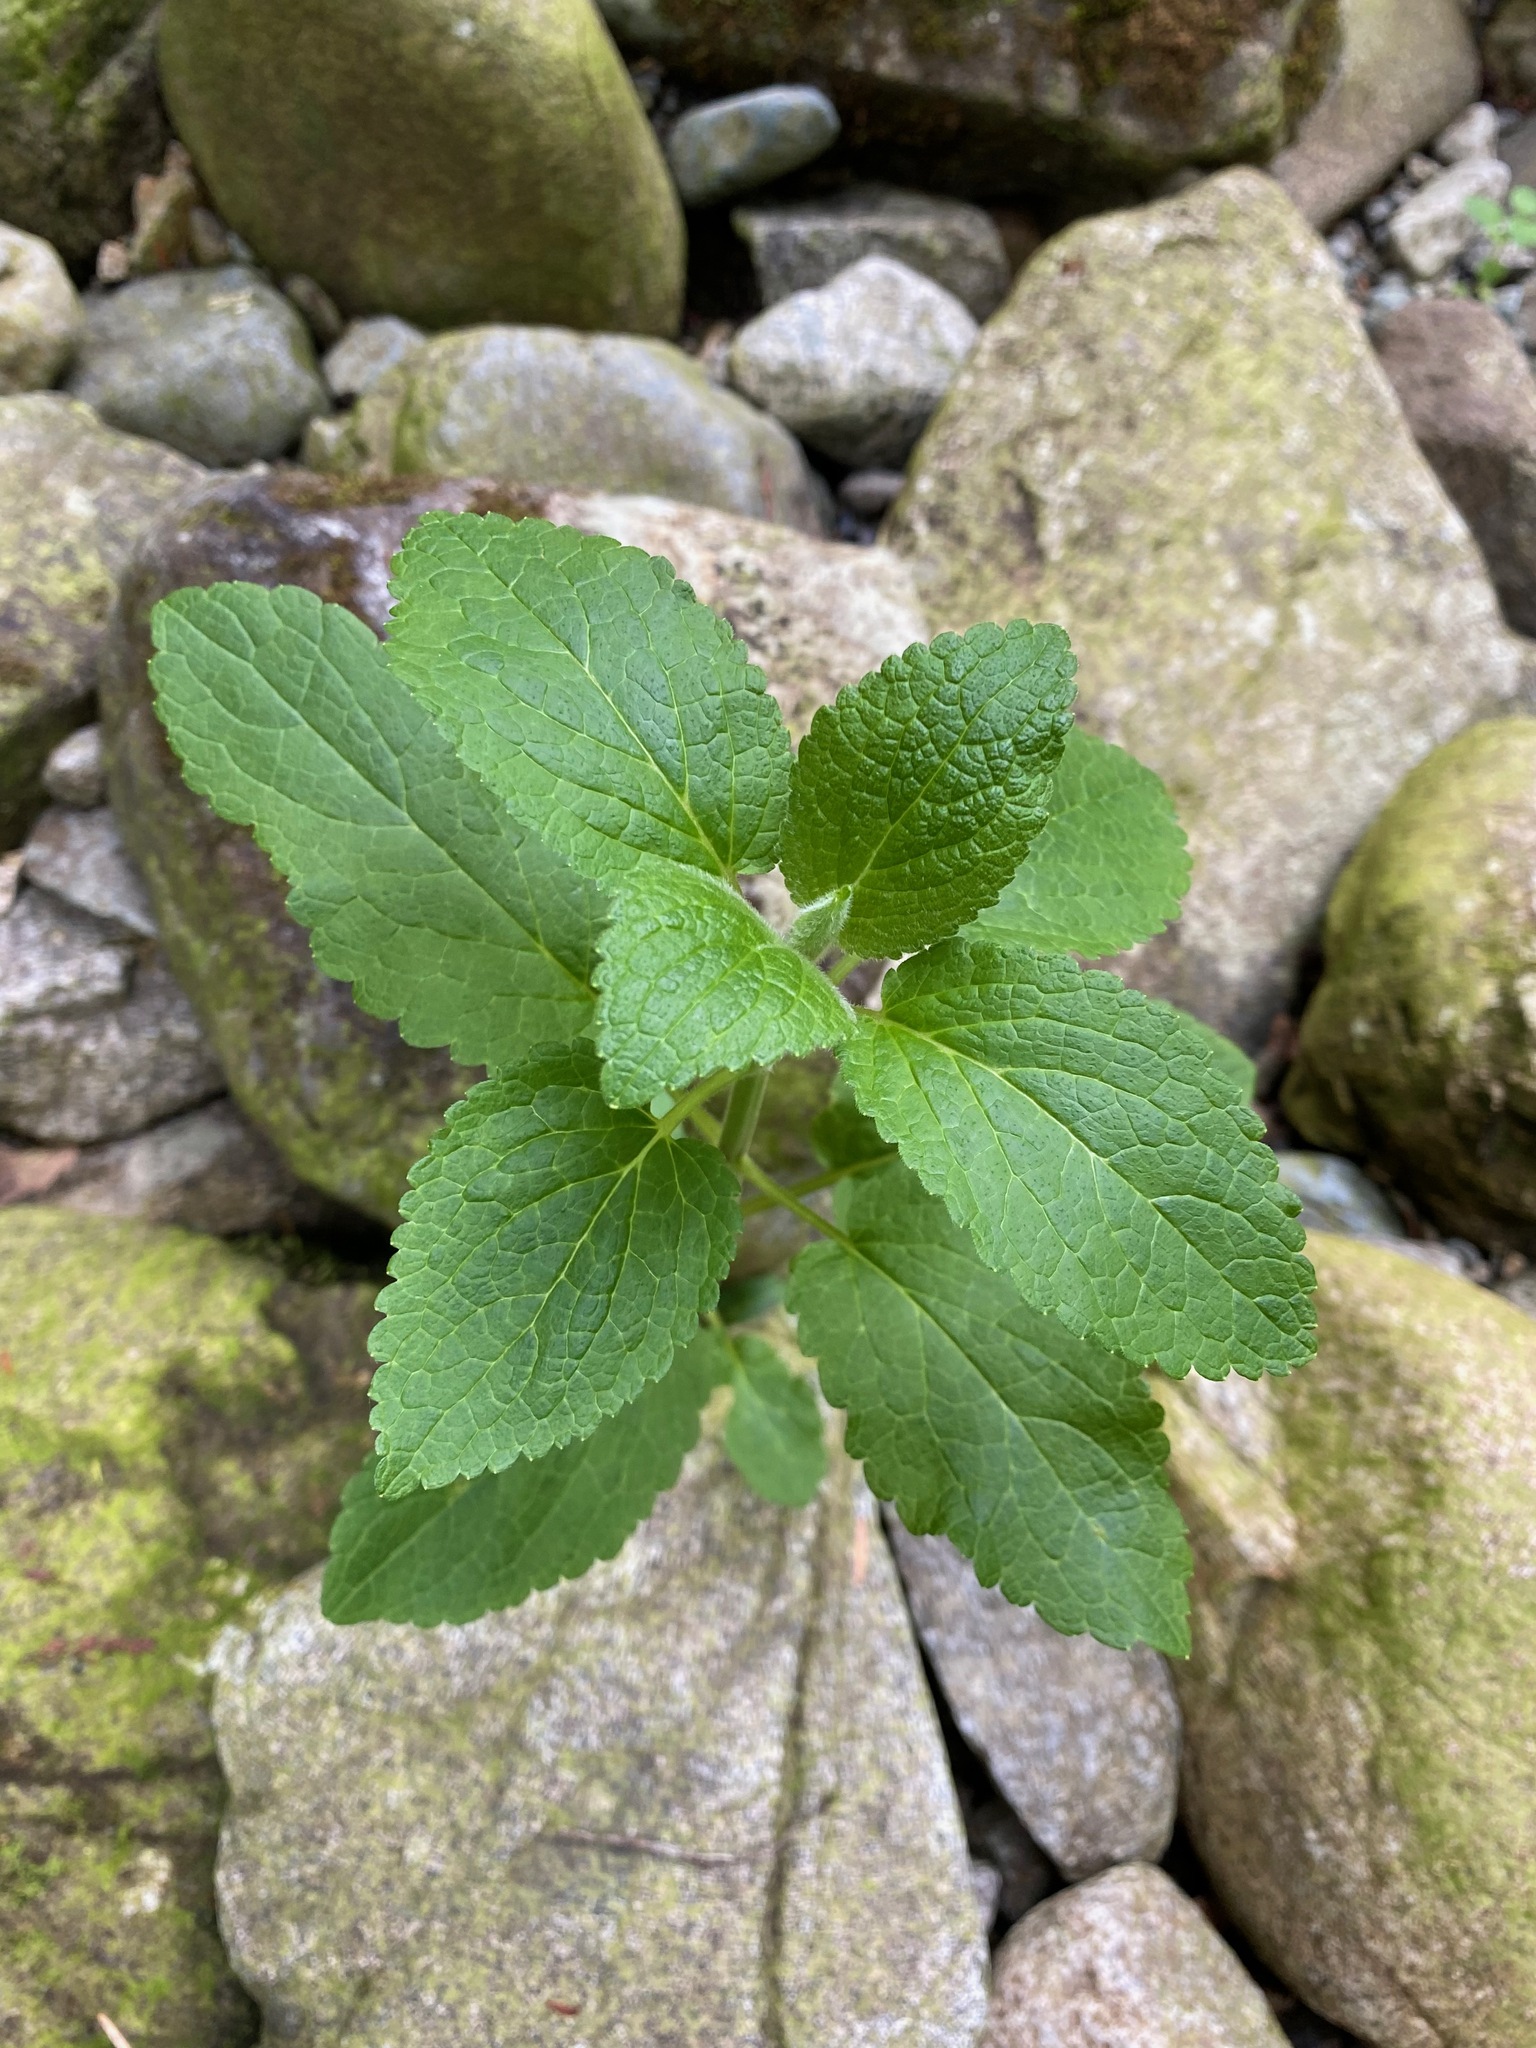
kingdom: Plantae
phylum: Tracheophyta
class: Magnoliopsida
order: Lamiales
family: Lamiaceae
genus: Stachys
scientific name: Stachys chamissonis
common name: Coastal hedge-nettle
